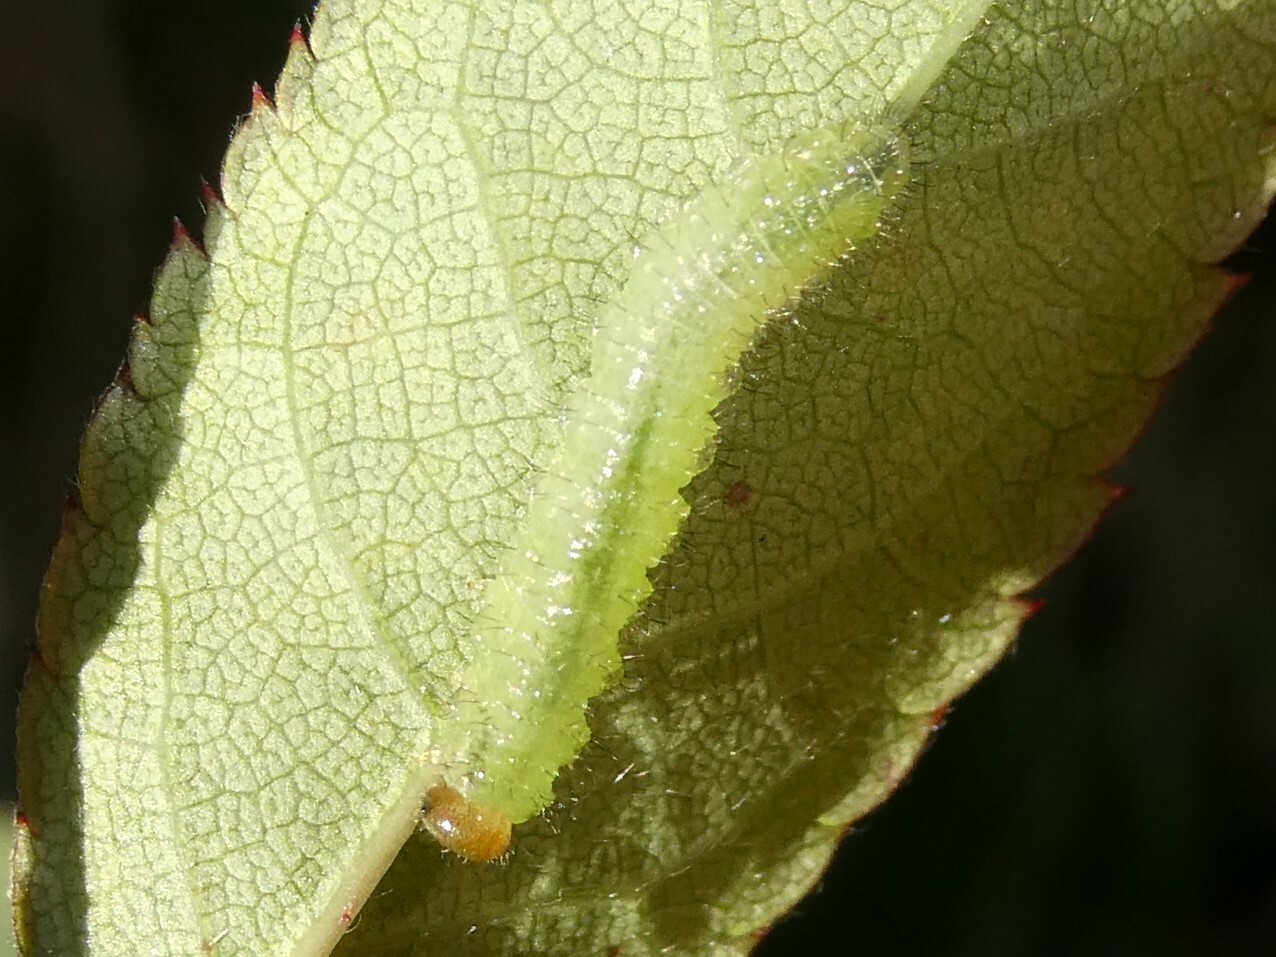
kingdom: Animalia
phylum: Arthropoda
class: Insecta
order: Hymenoptera
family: Tenthredinidae
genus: Cladius
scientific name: Cladius pectinicornis
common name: Sawfly
